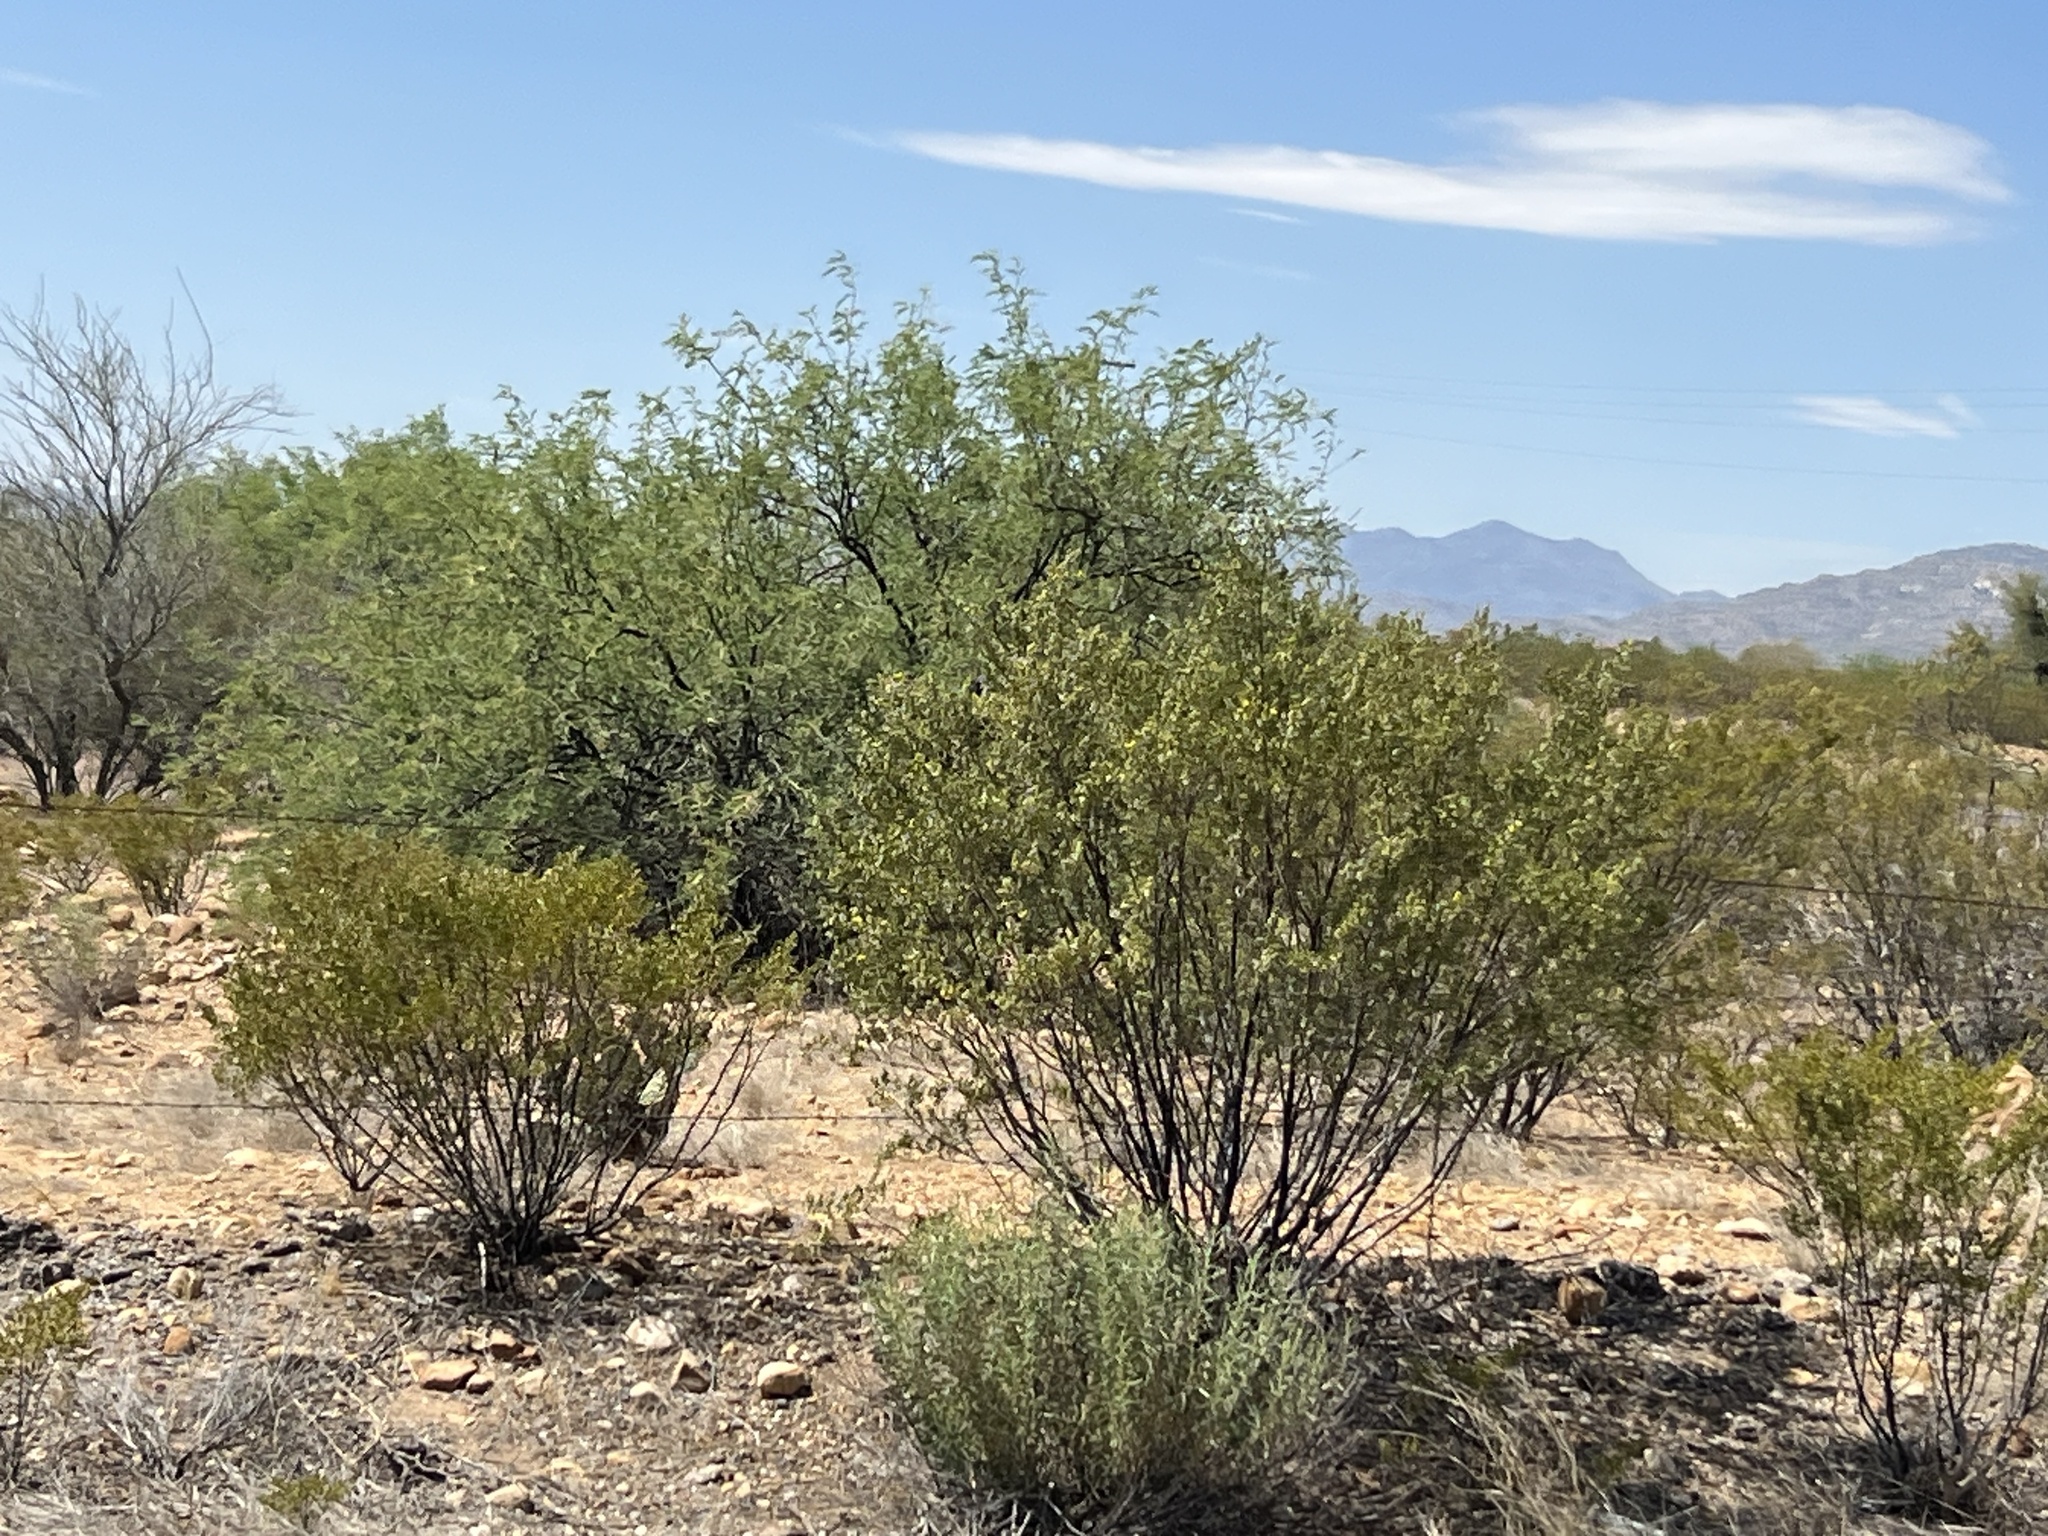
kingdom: Plantae
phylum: Tracheophyta
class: Magnoliopsida
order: Zygophyllales
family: Zygophyllaceae
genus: Larrea
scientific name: Larrea tridentata
